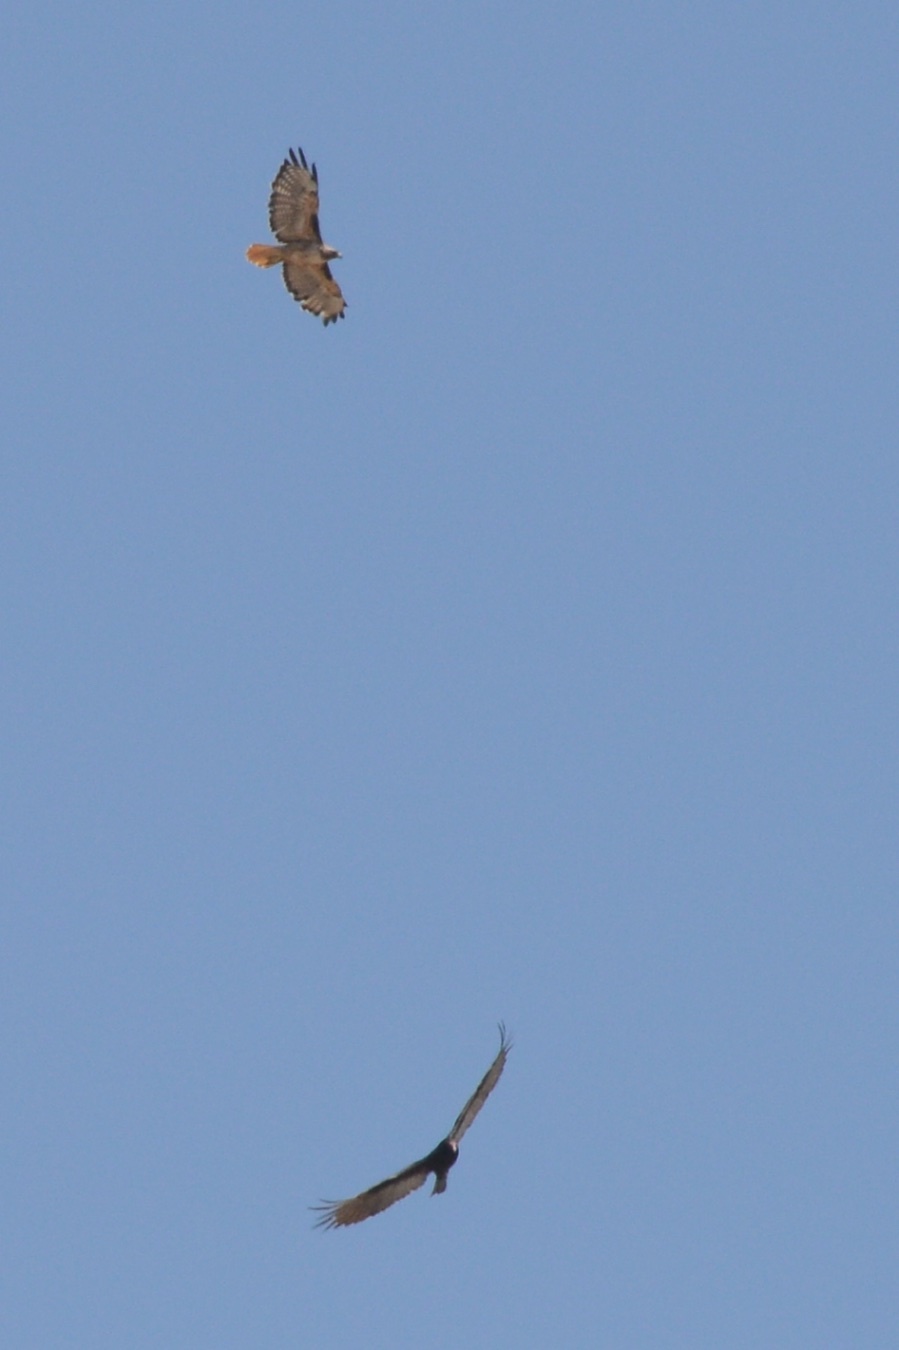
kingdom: Animalia
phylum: Chordata
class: Aves
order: Accipitriformes
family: Accipitridae
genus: Buteo
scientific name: Buteo jamaicensis
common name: Red-tailed hawk
